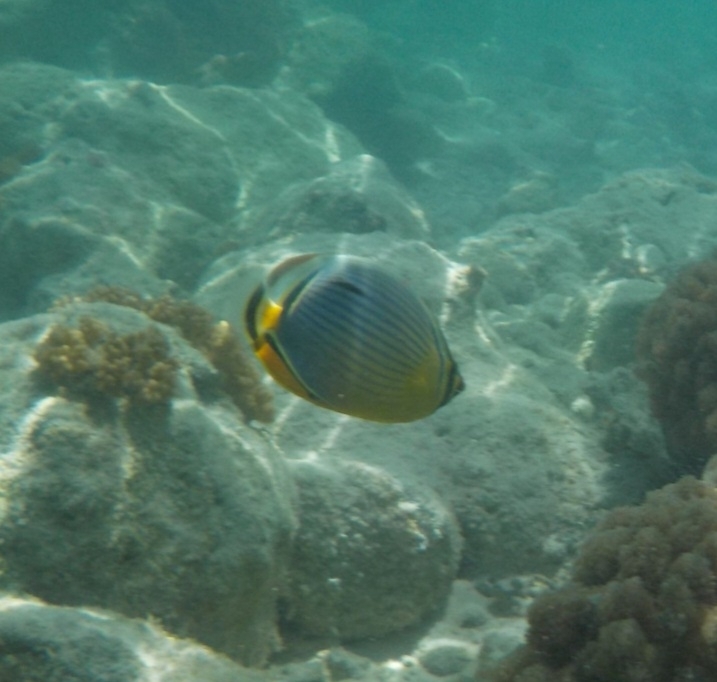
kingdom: Animalia
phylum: Chordata
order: Perciformes
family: Chaetodontidae
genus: Chaetodon
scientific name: Chaetodon trifasciatus
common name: Redfin butterflyfish
